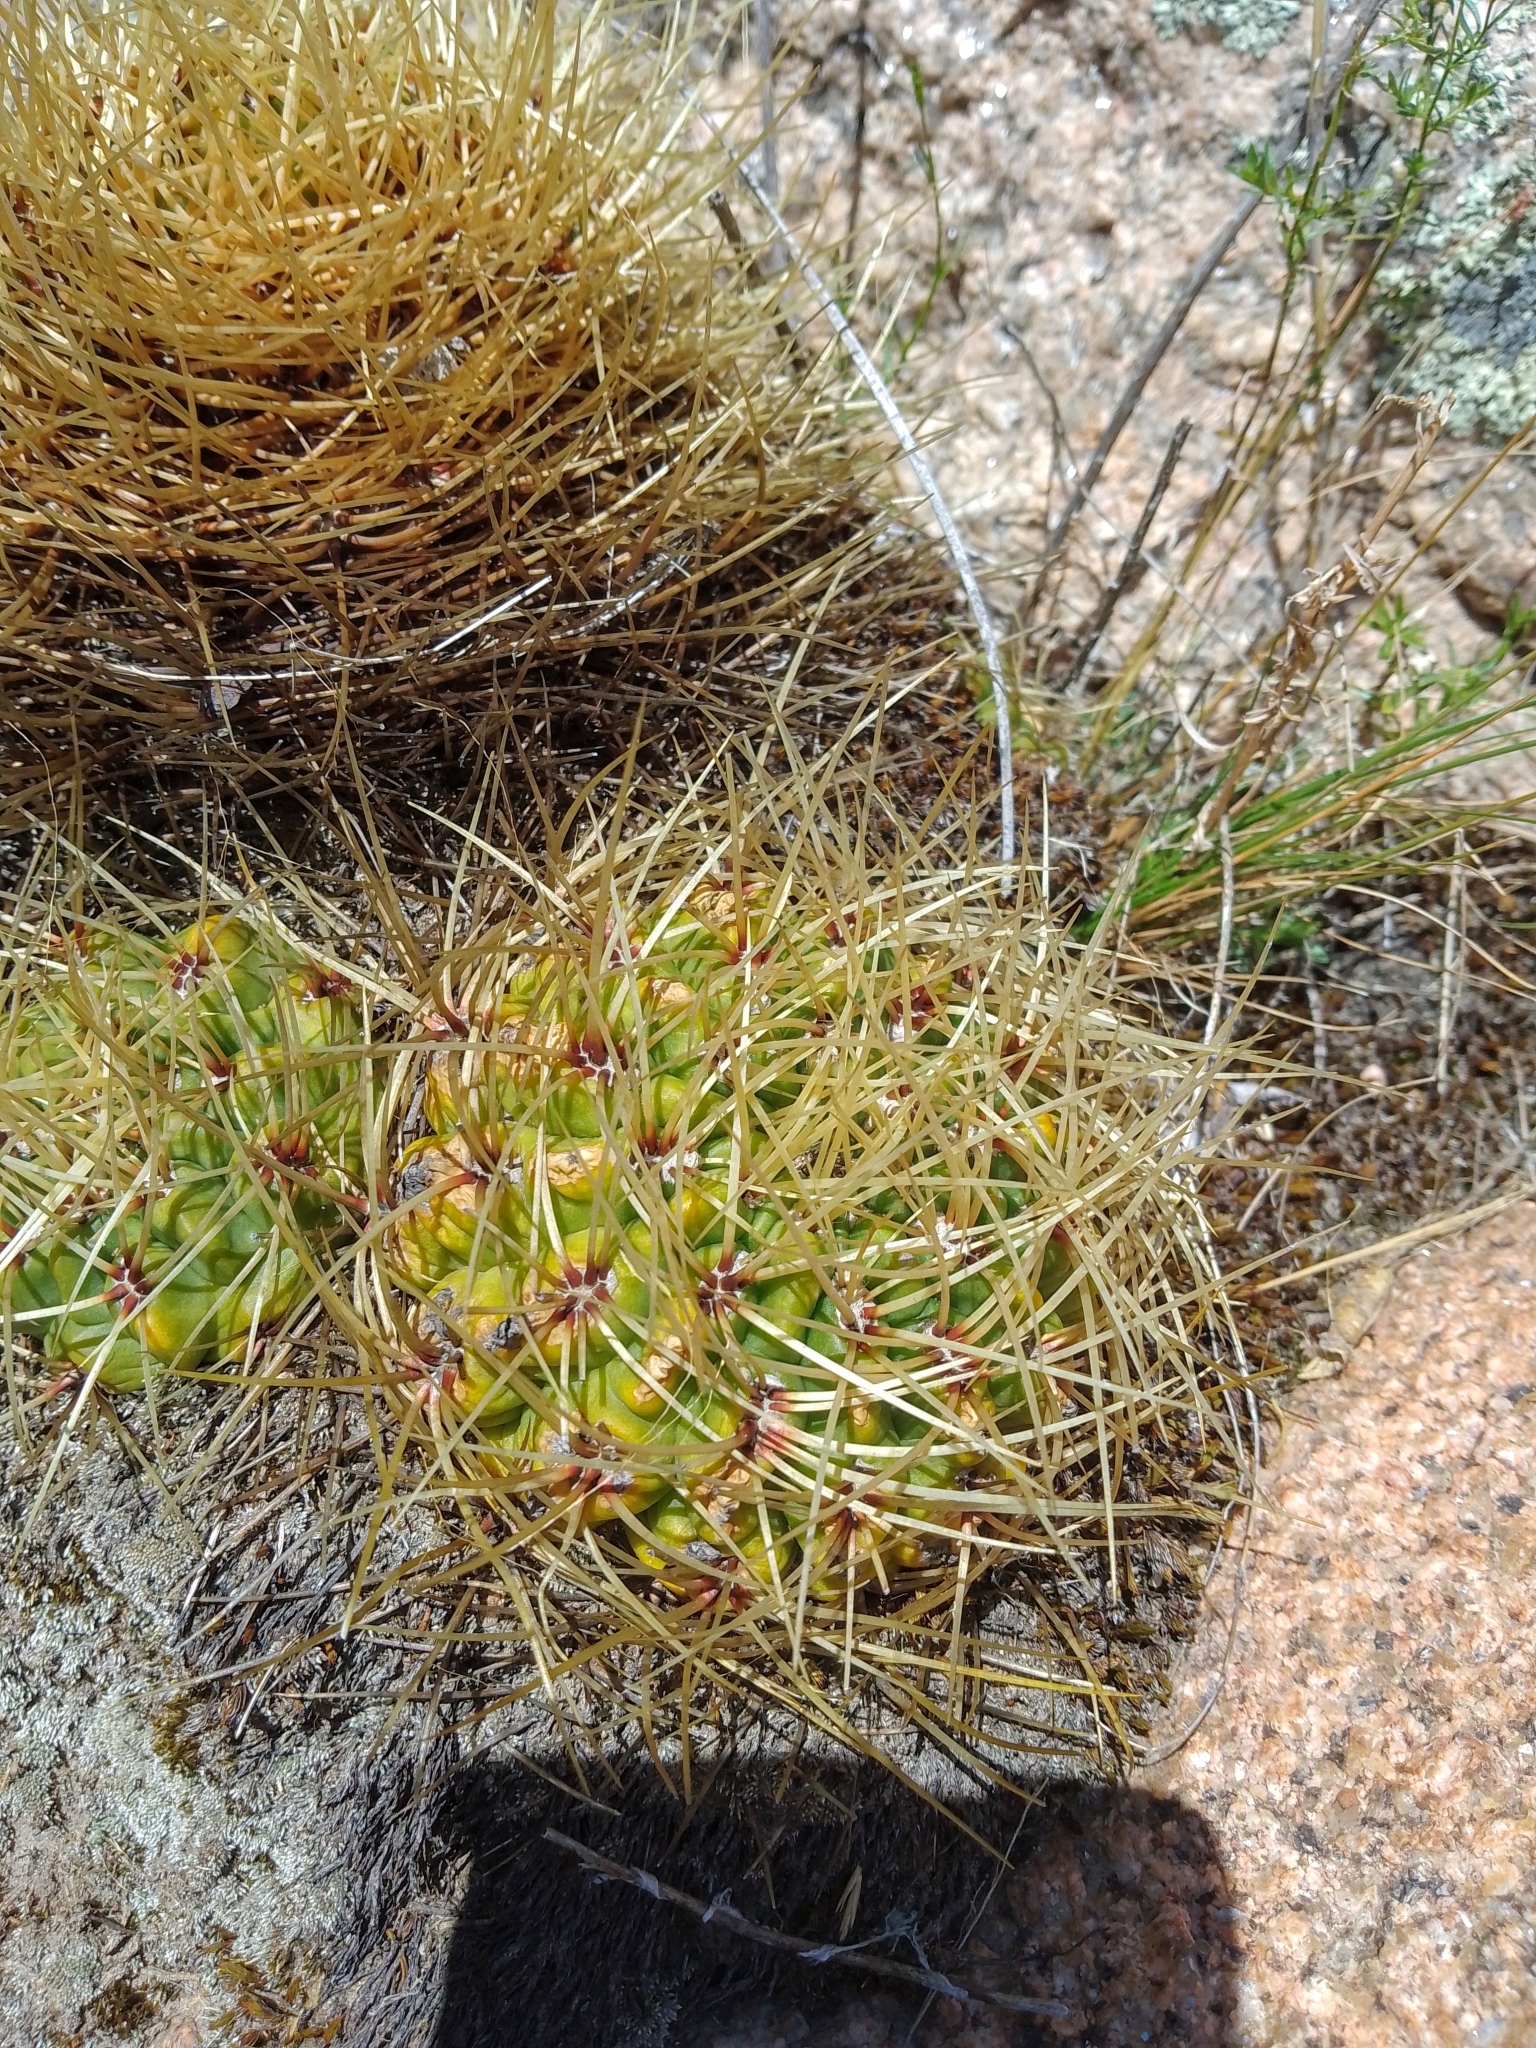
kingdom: Plantae
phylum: Tracheophyta
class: Magnoliopsida
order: Caryophyllales
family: Cactaceae
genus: Gymnocalycium
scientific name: Gymnocalycium monvillei
